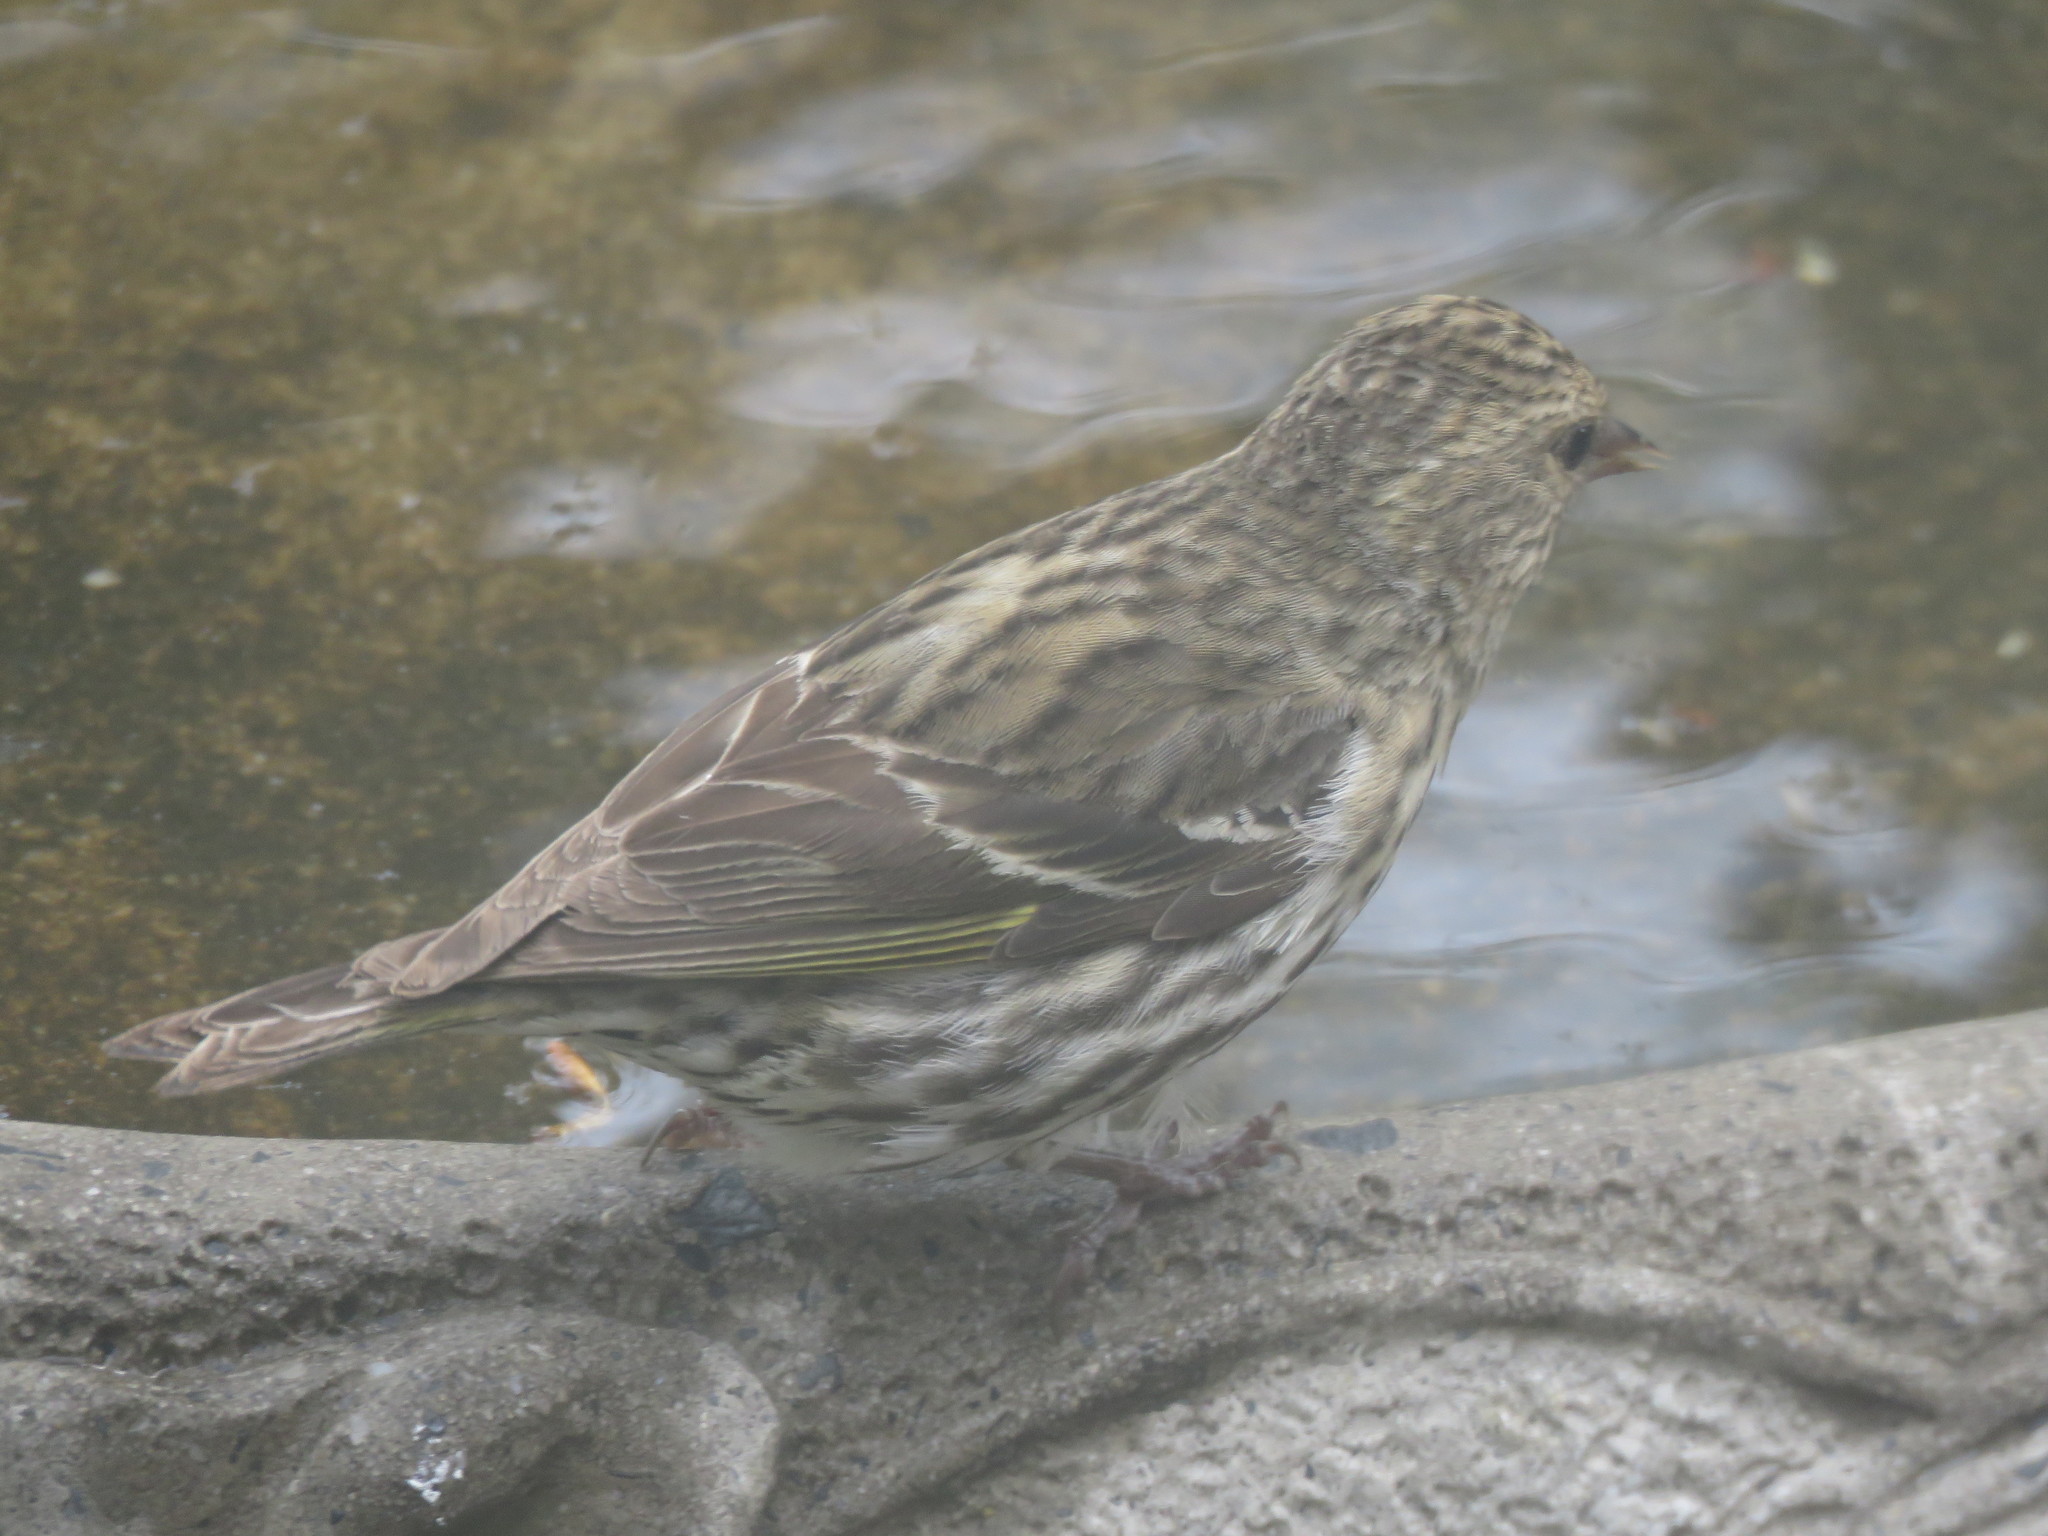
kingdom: Animalia
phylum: Chordata
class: Aves
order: Passeriformes
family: Fringillidae
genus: Spinus
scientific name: Spinus pinus
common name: Pine siskin
